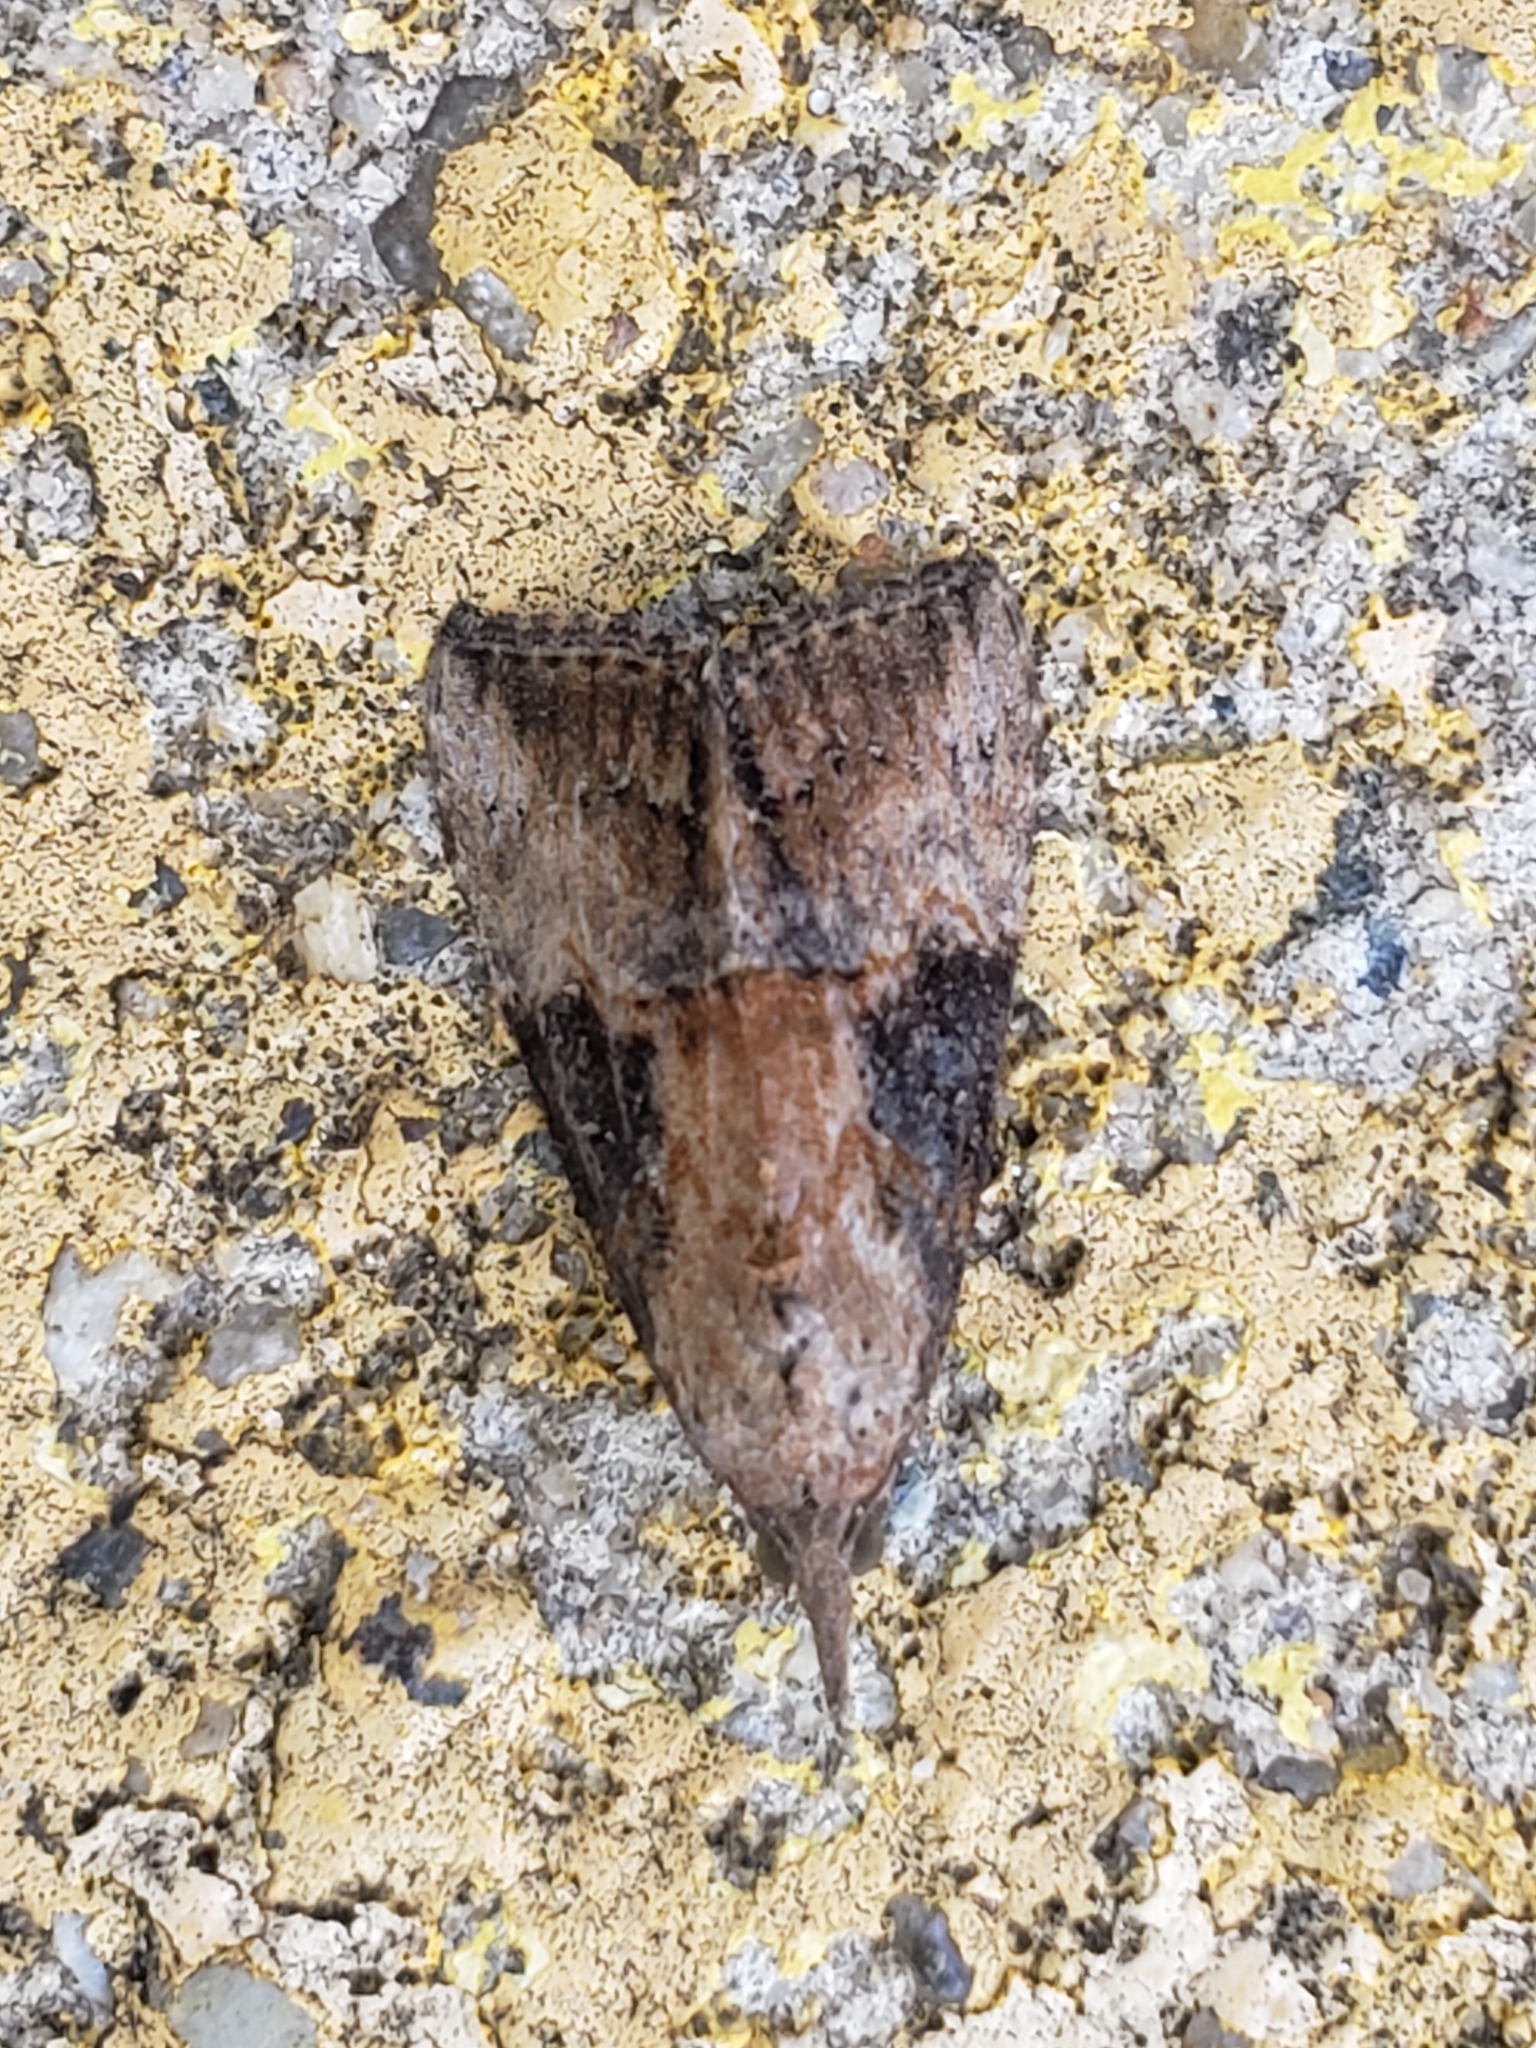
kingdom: Animalia
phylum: Arthropoda
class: Insecta
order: Lepidoptera
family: Erebidae
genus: Hypena
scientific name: Hypena scabra
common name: Green cloverworm
